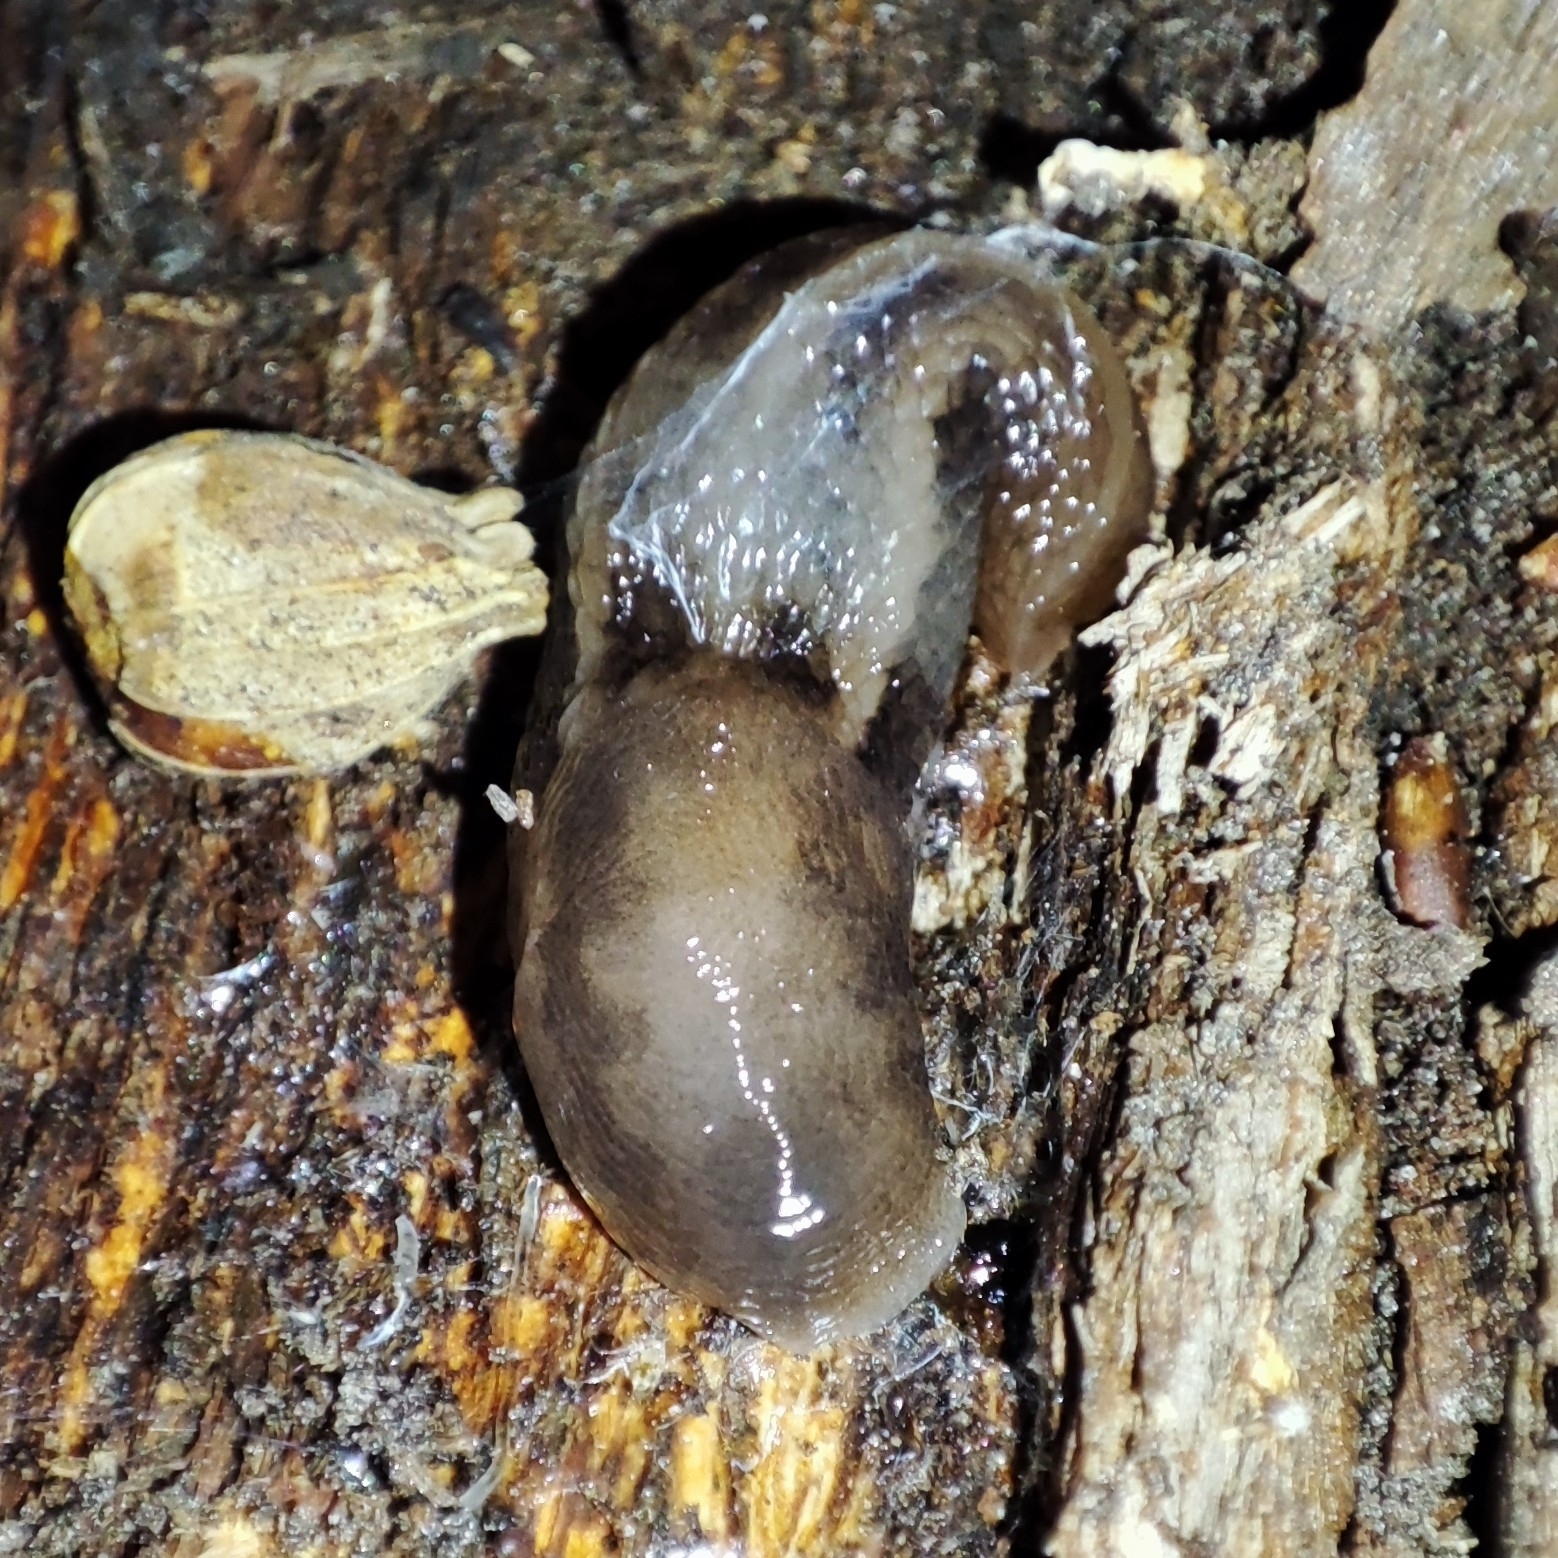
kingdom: Animalia
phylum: Mollusca
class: Gastropoda
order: Stylommatophora
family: Limacidae
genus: Lehmannia
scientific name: Lehmannia marginata
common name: Tree slug
